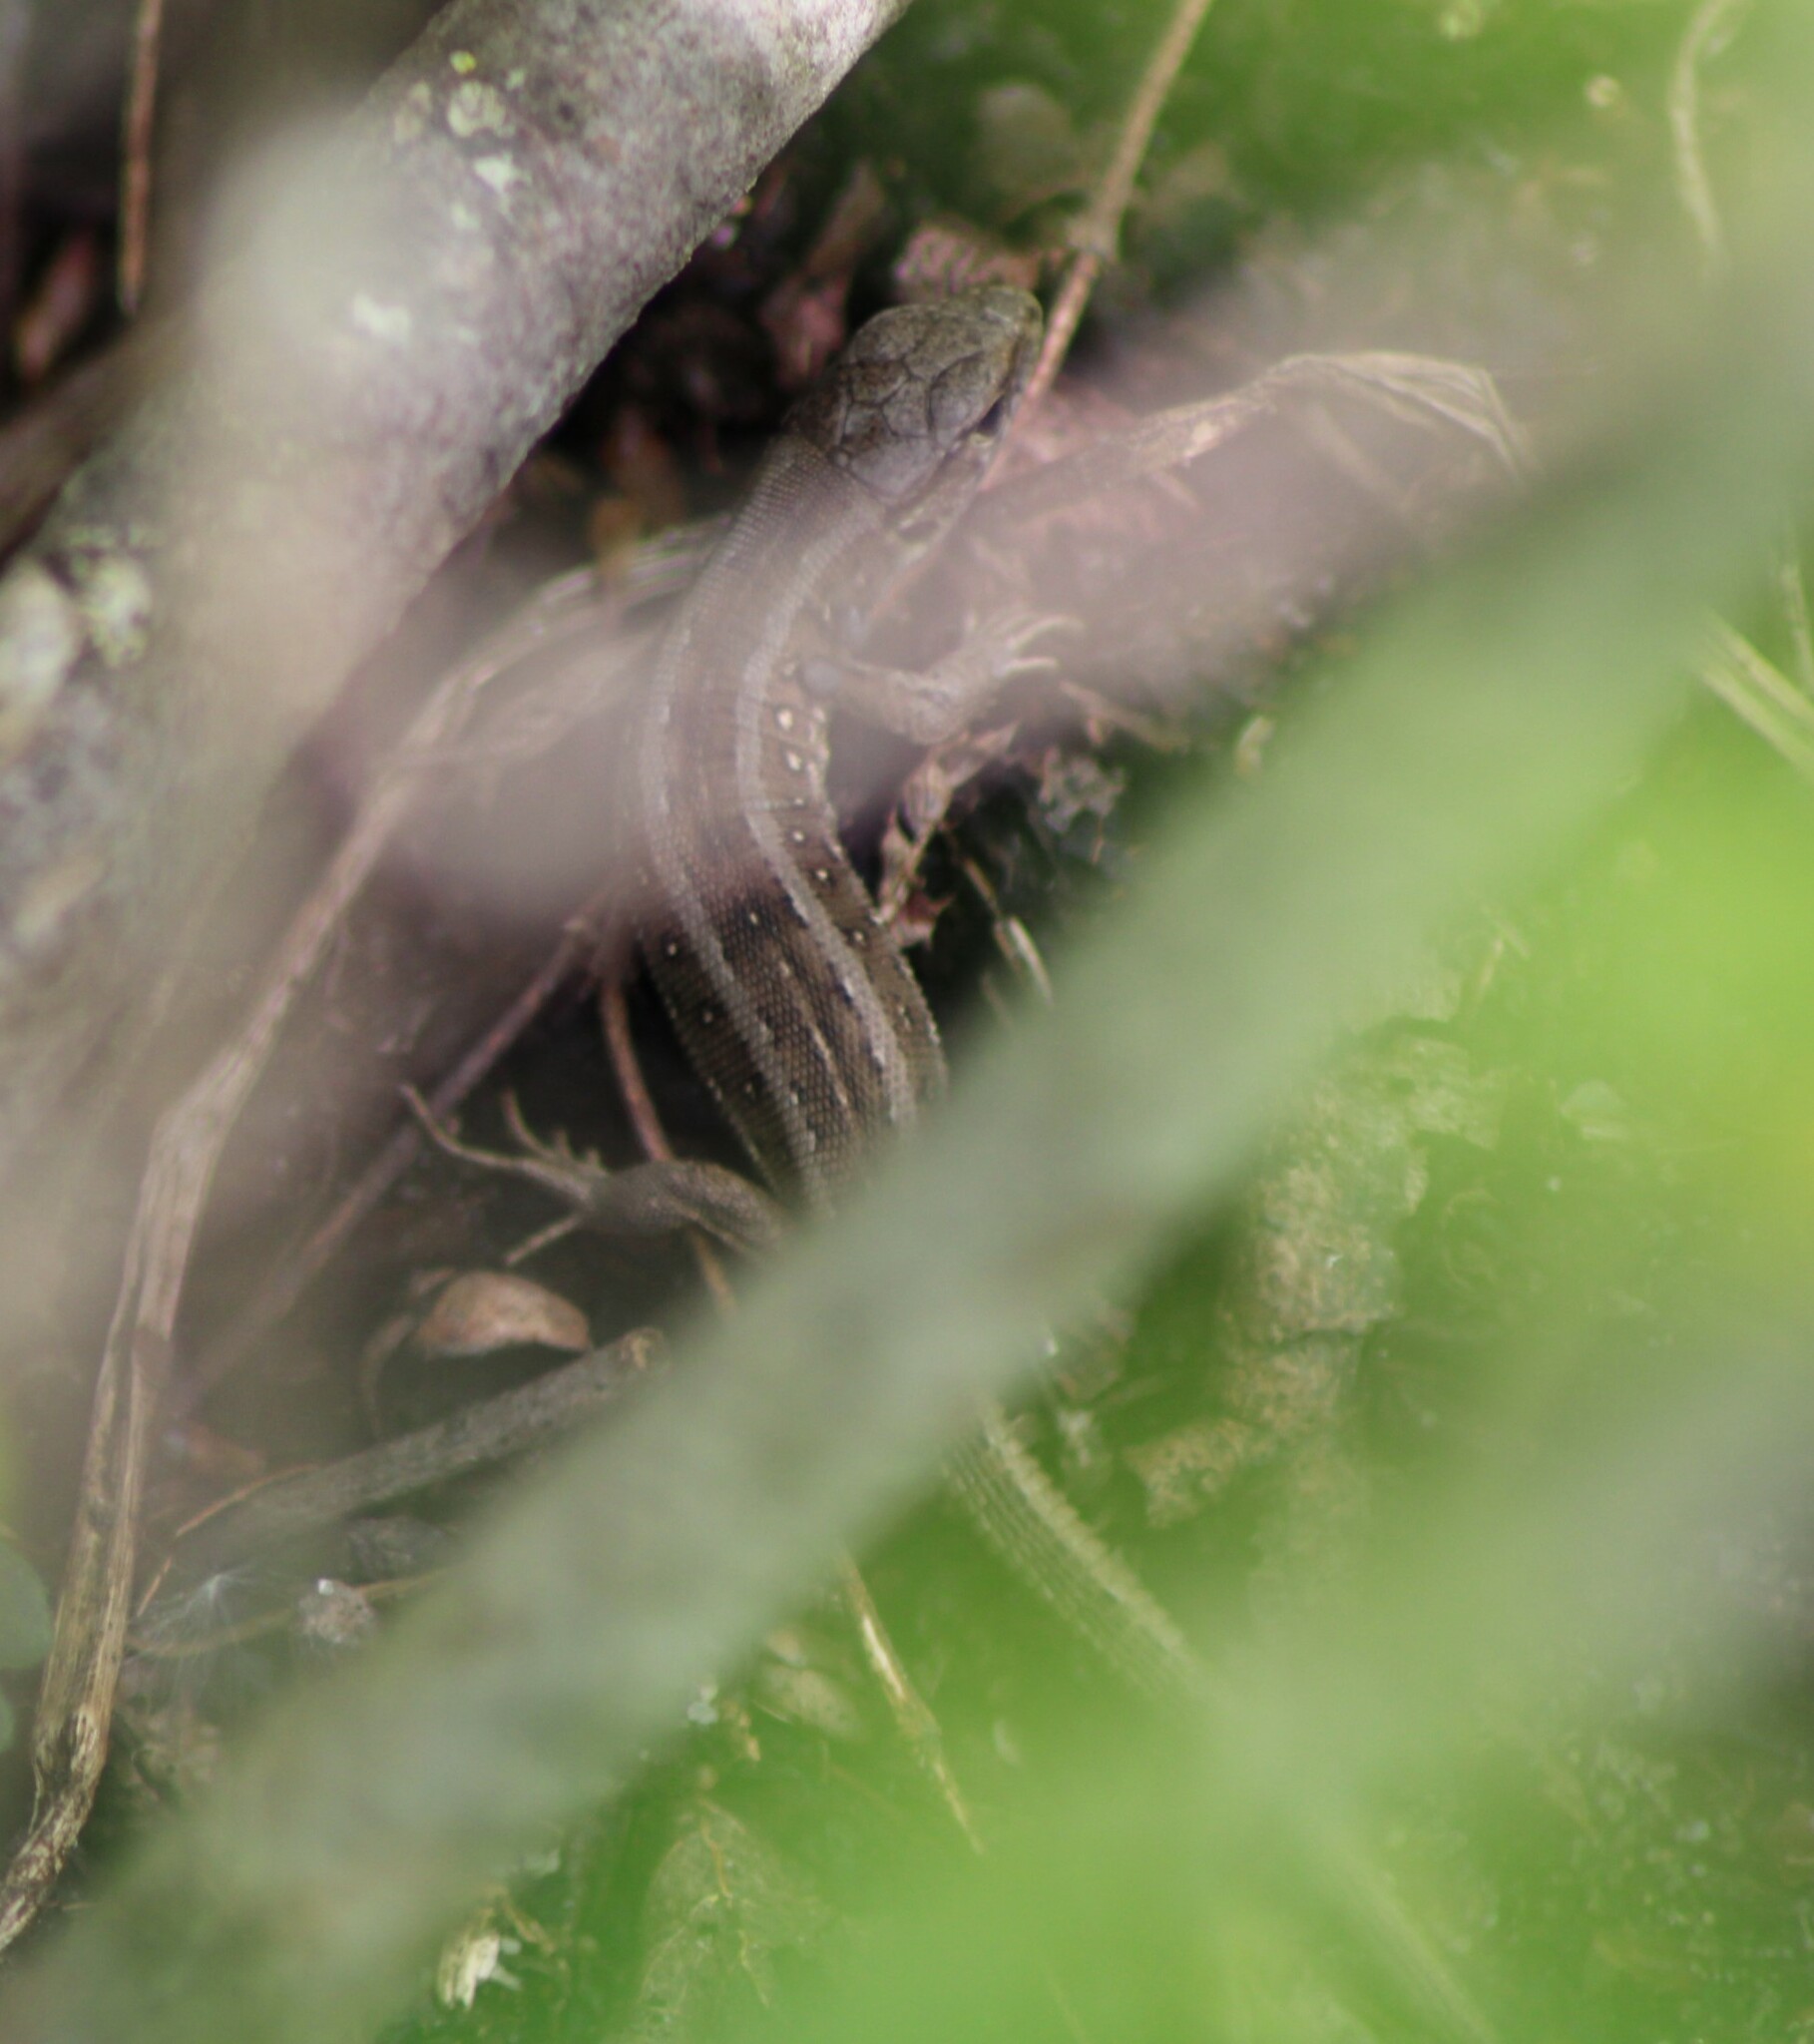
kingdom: Animalia
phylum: Chordata
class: Squamata
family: Lacertidae
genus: Lacerta
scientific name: Lacerta agilis
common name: Sand lizard
